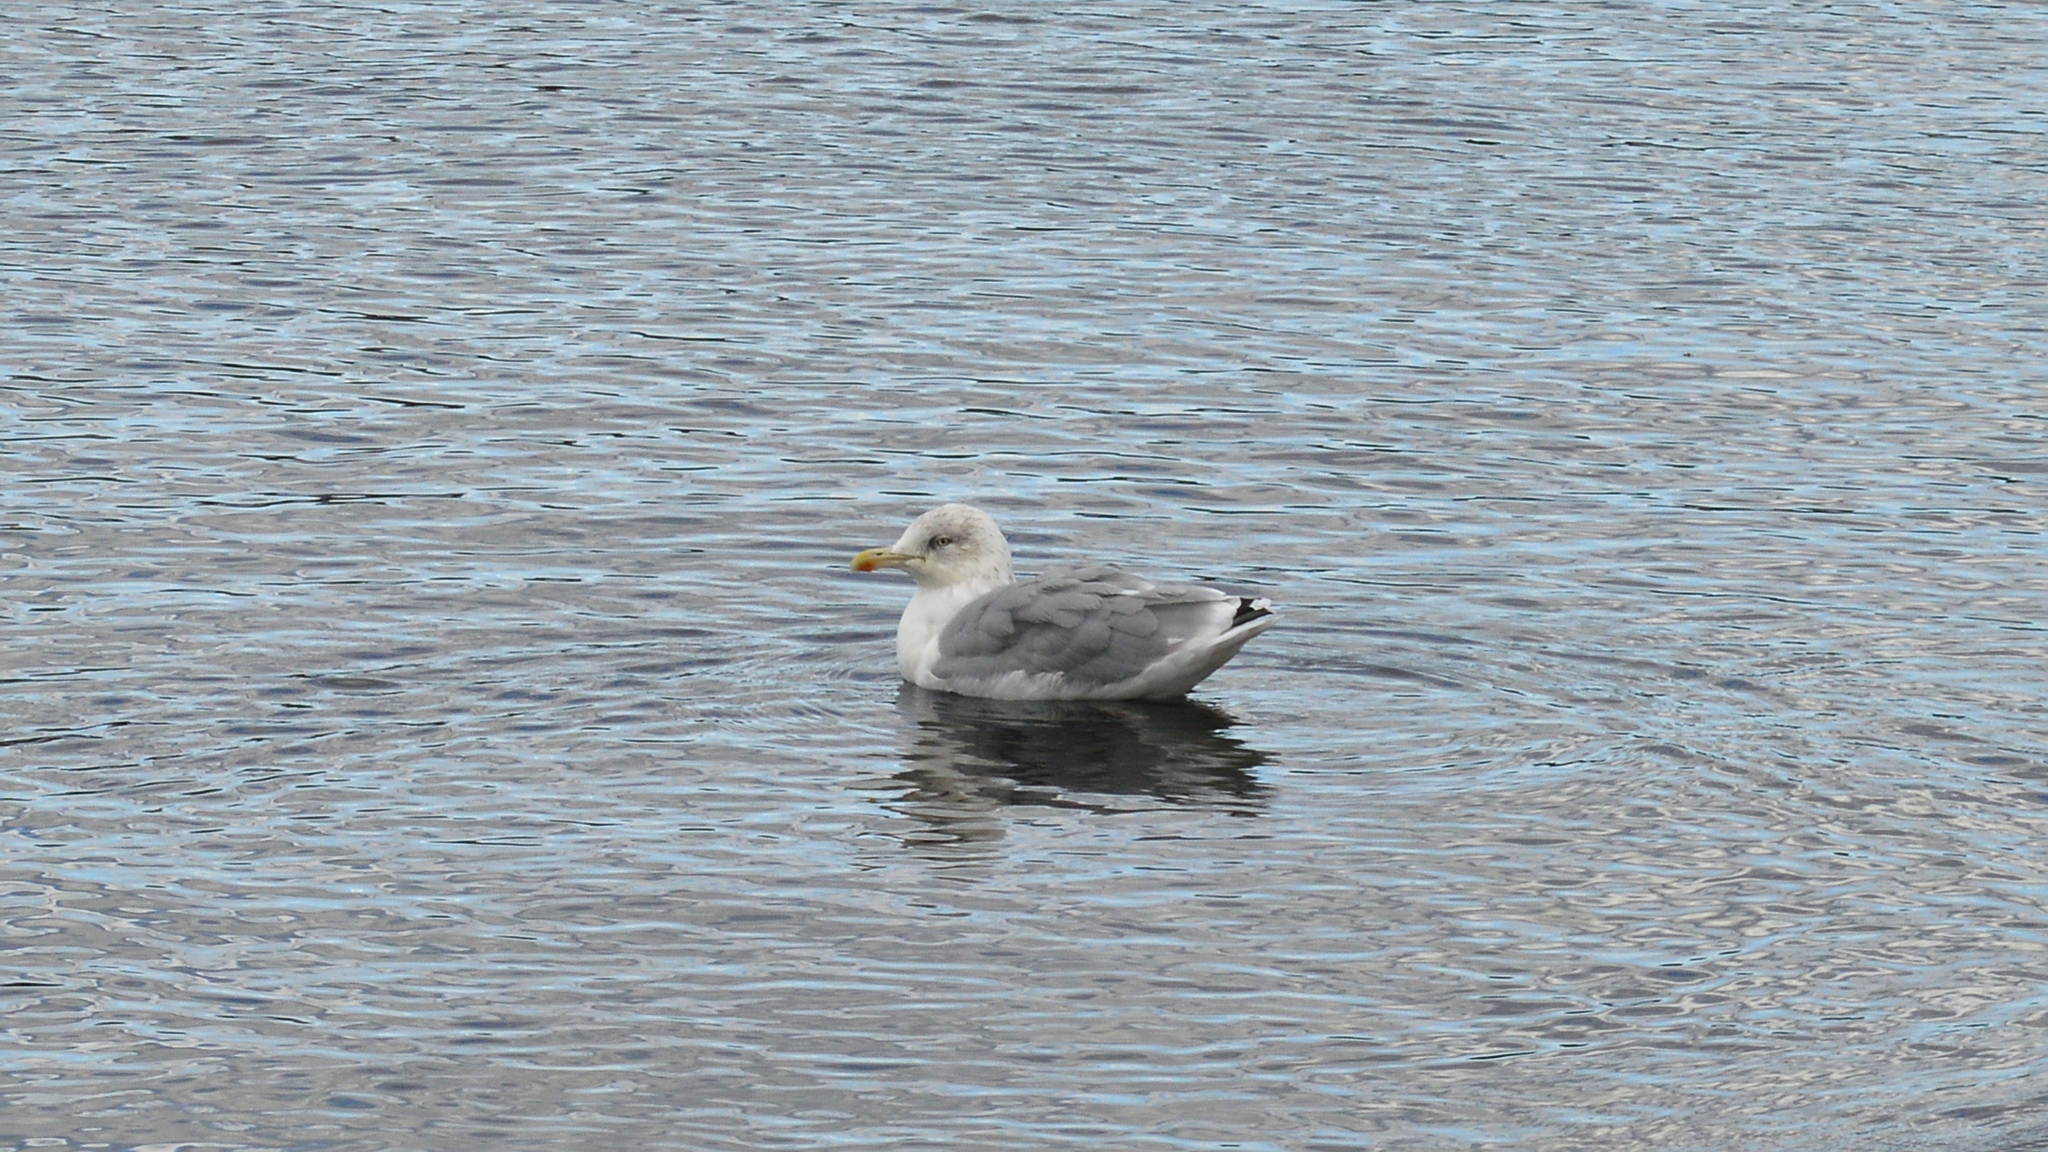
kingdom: Animalia
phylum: Chordata
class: Aves
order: Charadriiformes
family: Laridae
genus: Larus
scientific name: Larus argentatus
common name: Herring gull
